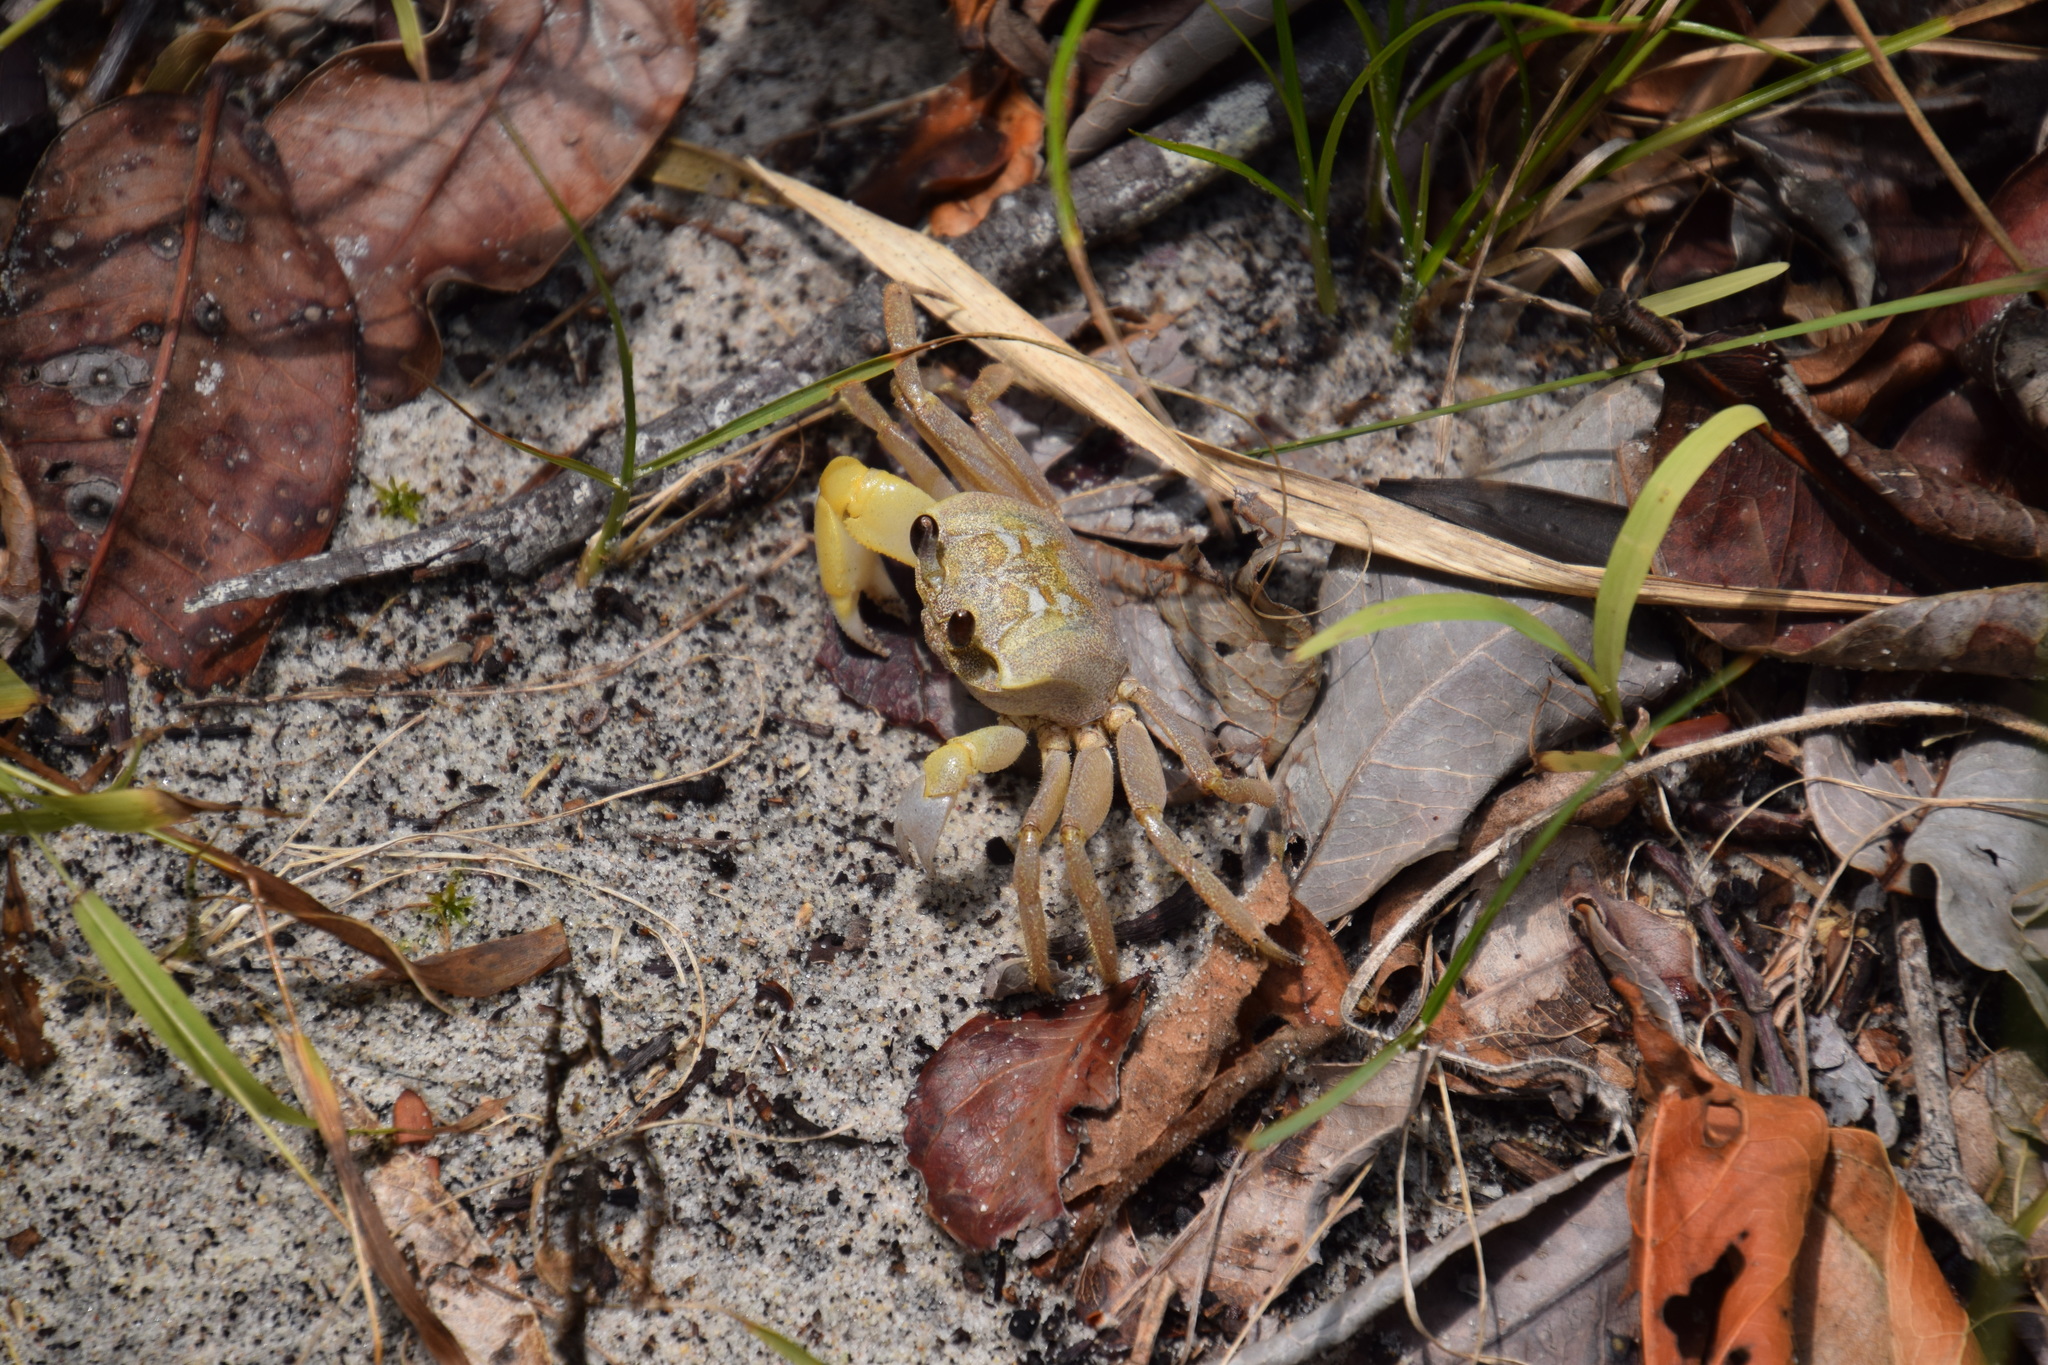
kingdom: Animalia
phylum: Arthropoda
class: Malacostraca
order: Decapoda
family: Ocypodidae
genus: Ocypode
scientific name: Ocypode cordimana
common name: Smooth-eyed ghost crab
